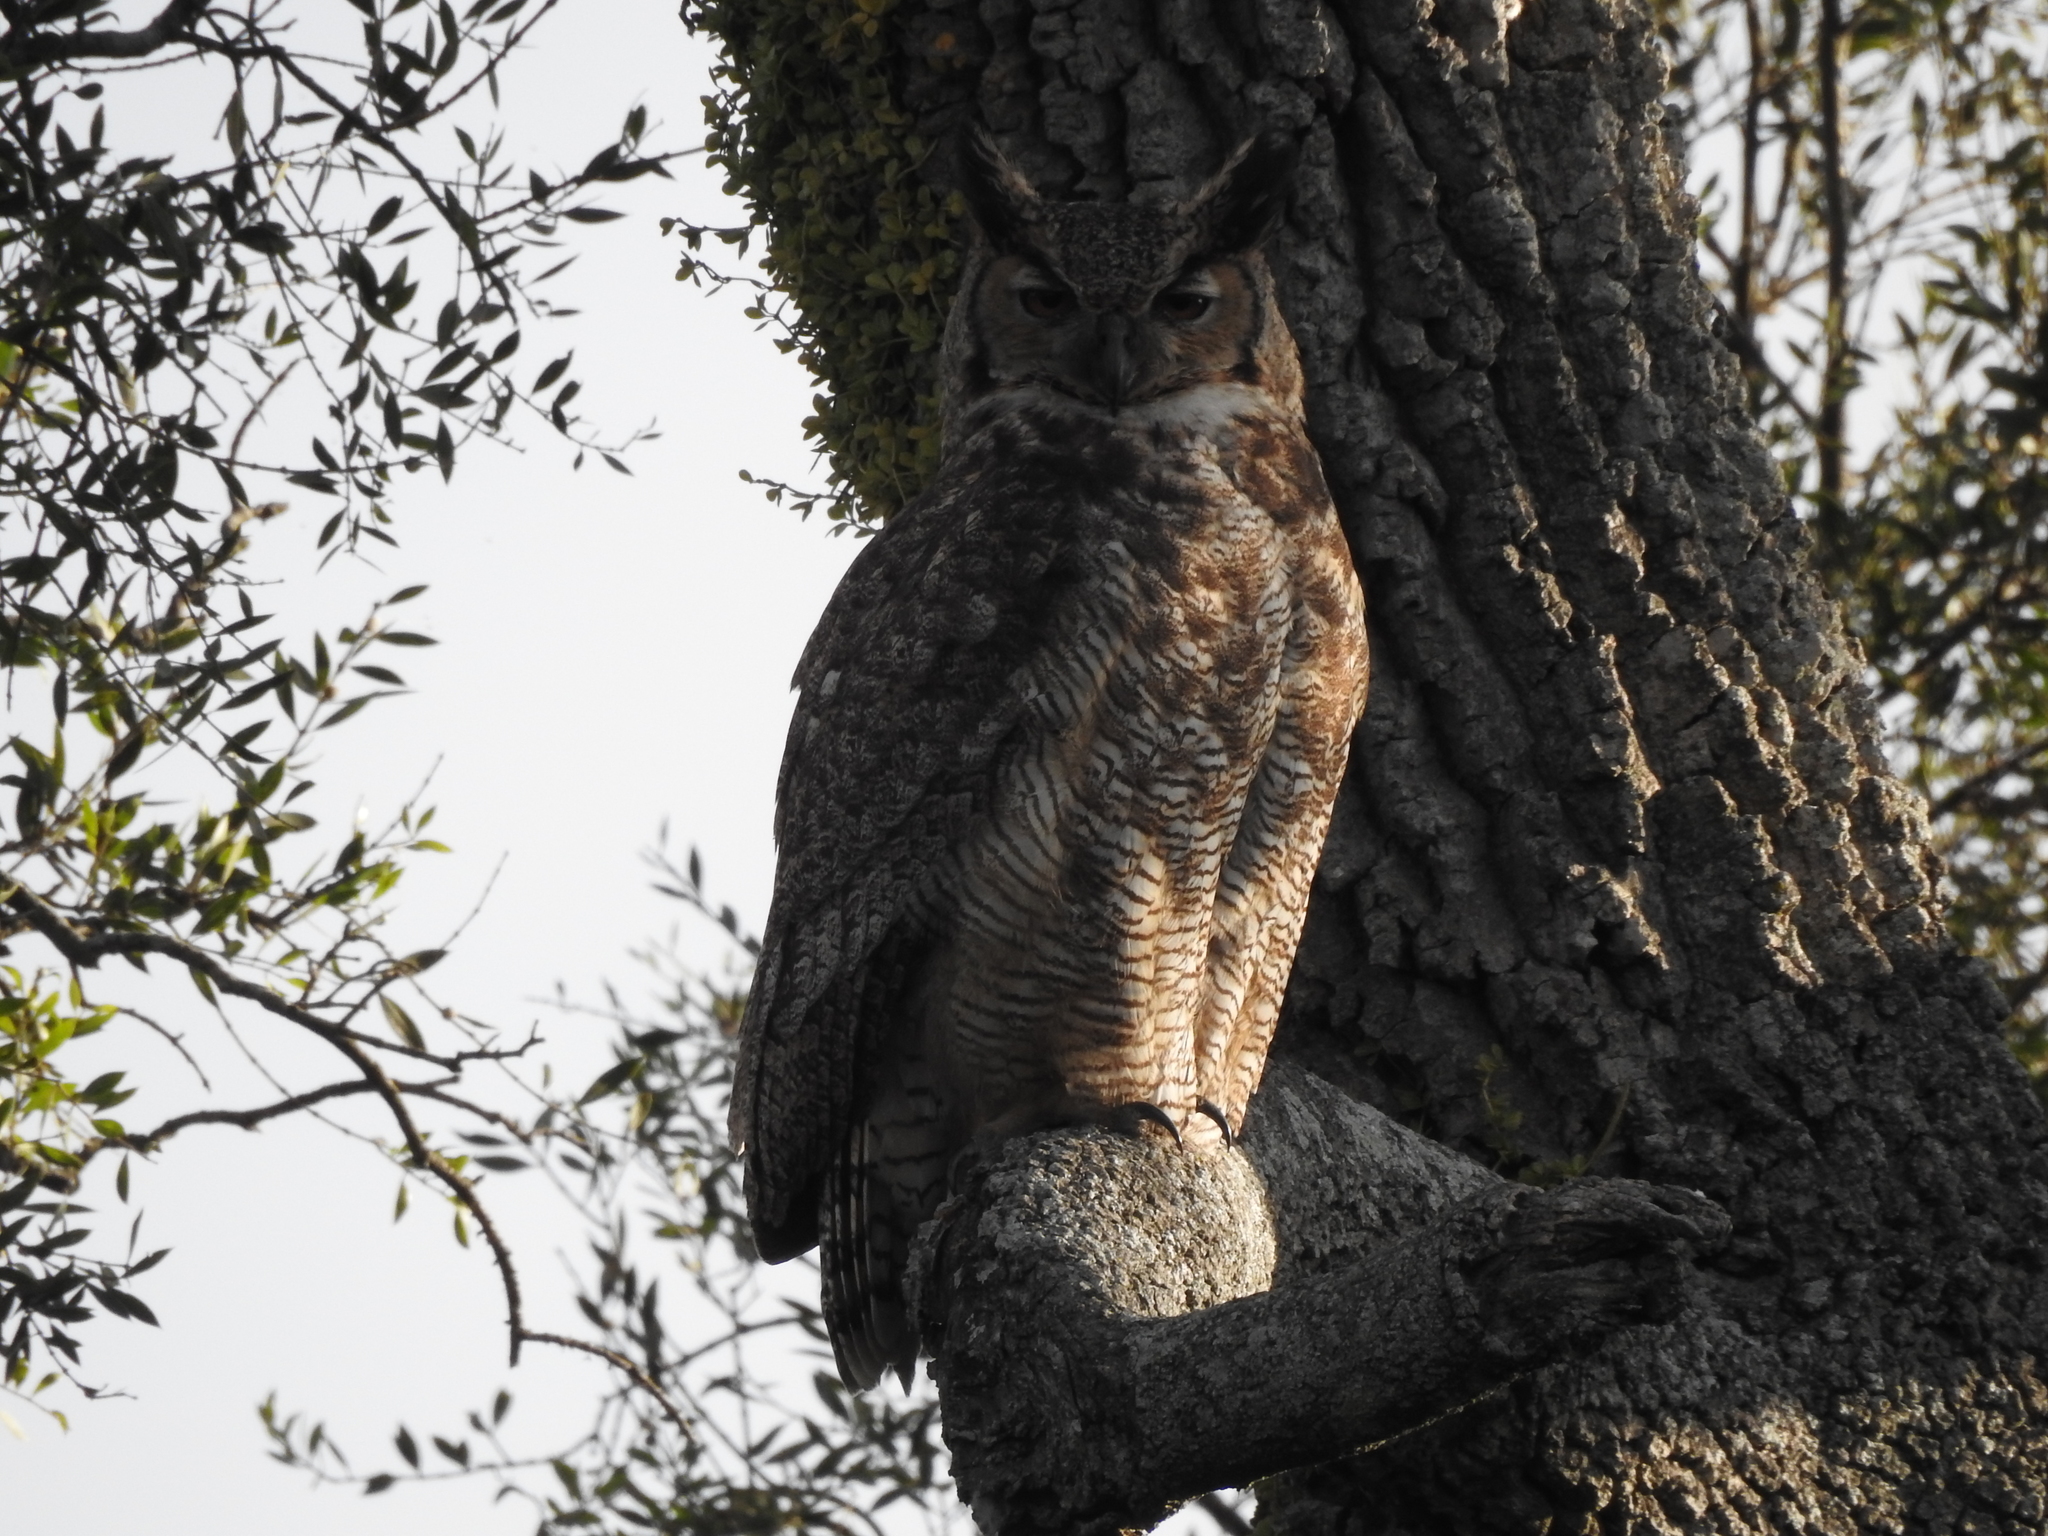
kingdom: Animalia
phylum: Chordata
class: Aves
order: Strigiformes
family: Strigidae
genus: Bubo
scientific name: Bubo virginianus
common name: Great horned owl
